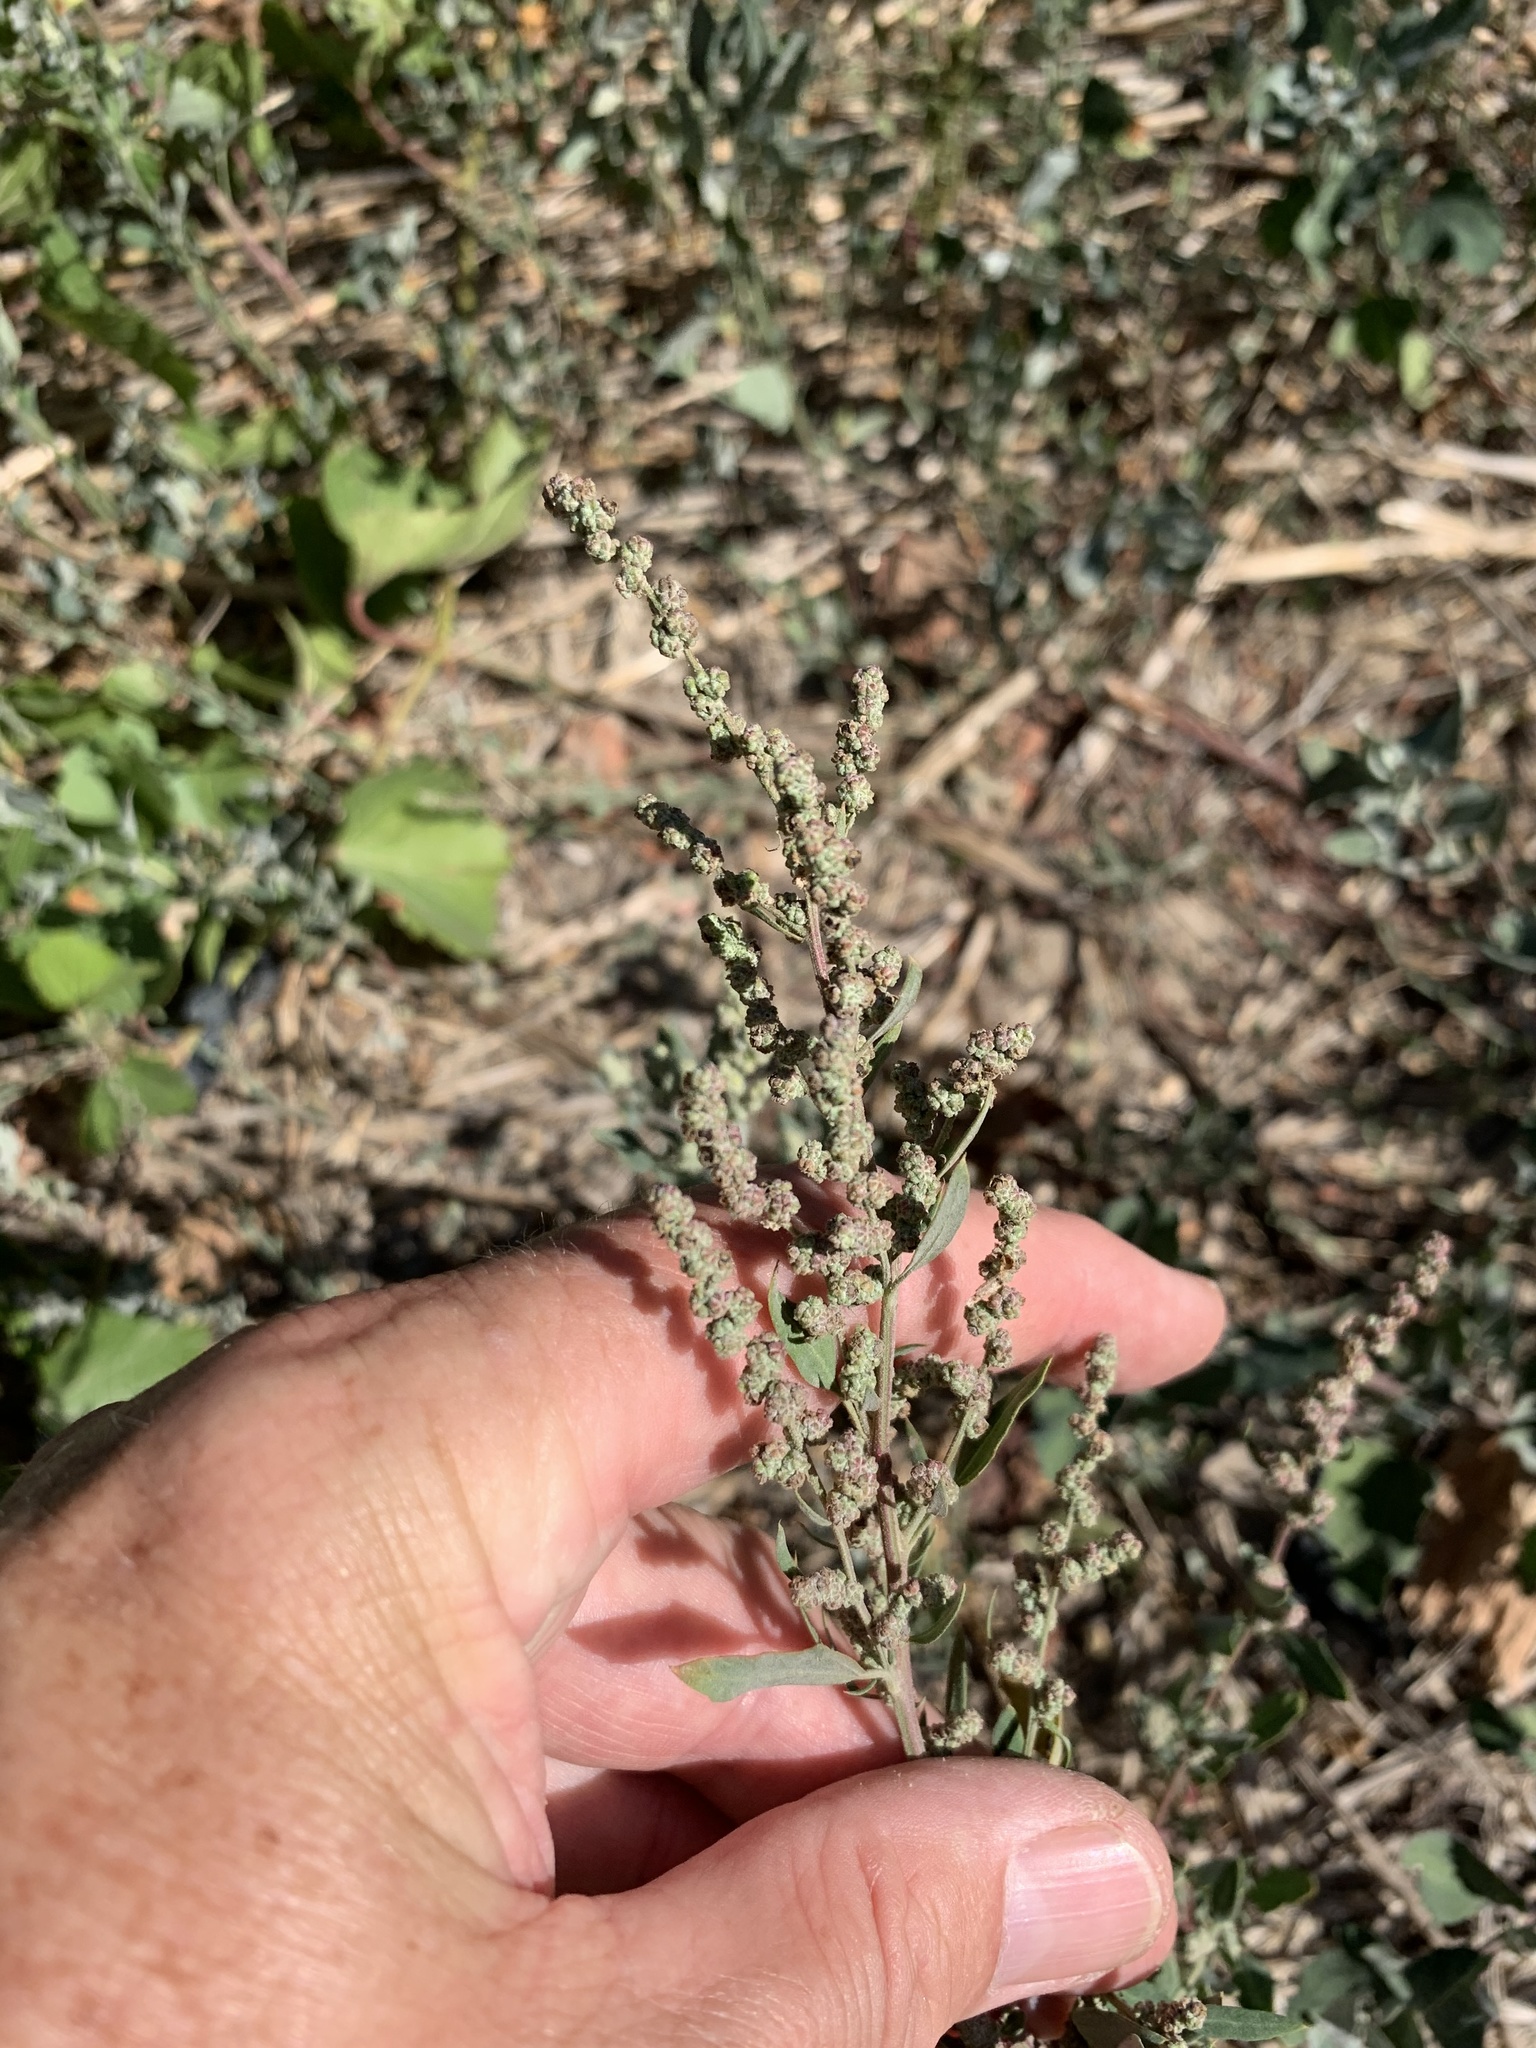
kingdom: Plantae
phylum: Tracheophyta
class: Magnoliopsida
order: Caryophyllales
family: Amaranthaceae
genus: Chenopodium
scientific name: Chenopodium album
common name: Fat-hen
